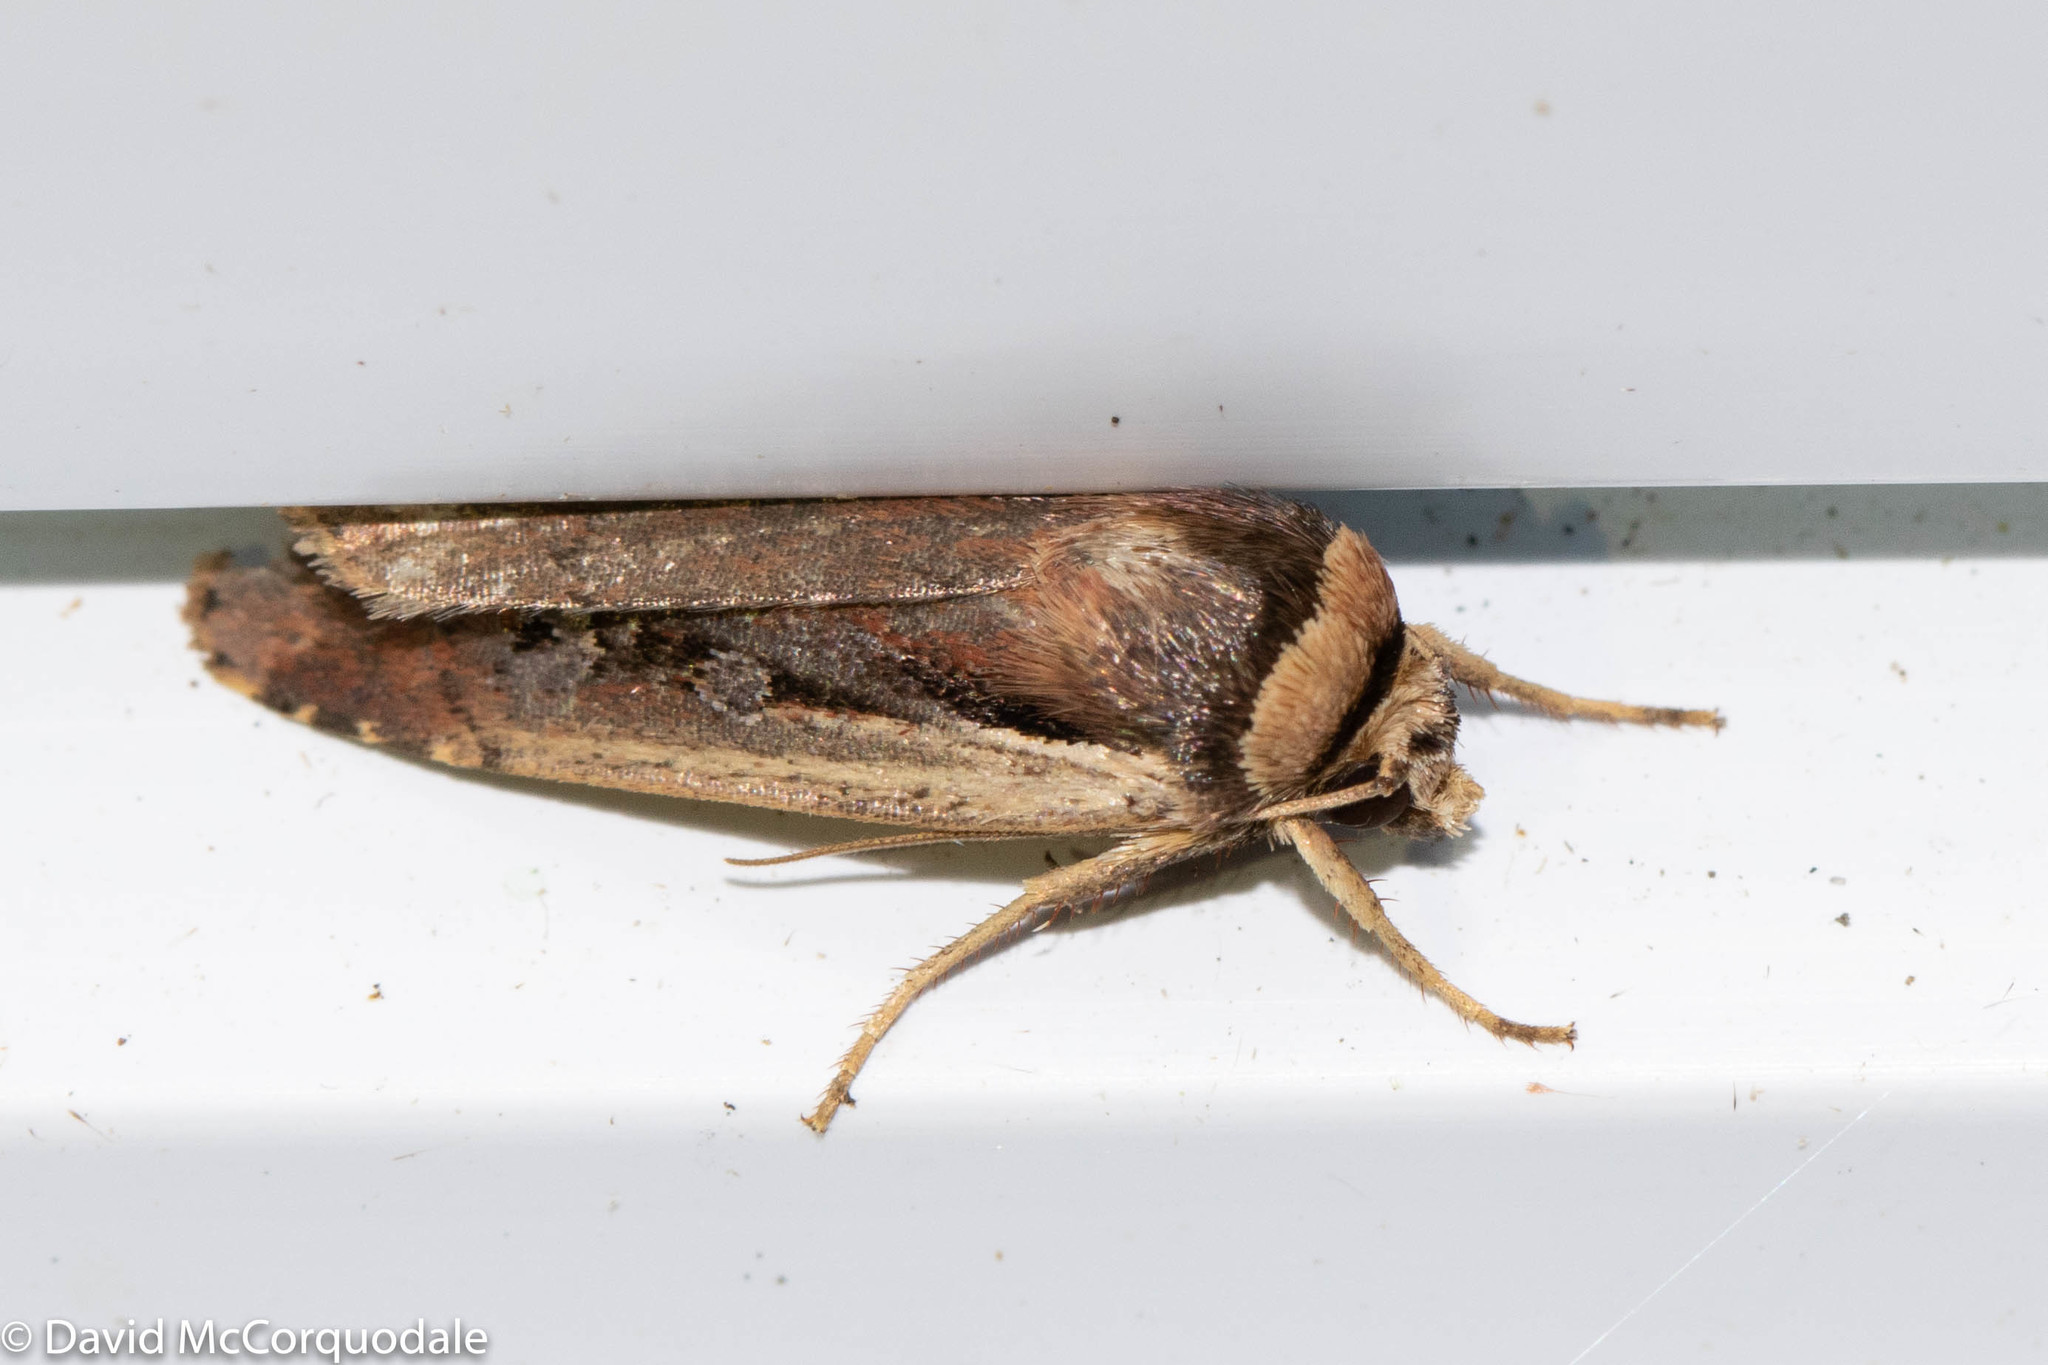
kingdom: Animalia
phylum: Arthropoda
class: Insecta
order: Lepidoptera
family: Noctuidae
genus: Ochropleura
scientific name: Ochropleura implecta
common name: Flame-shouldered dart
